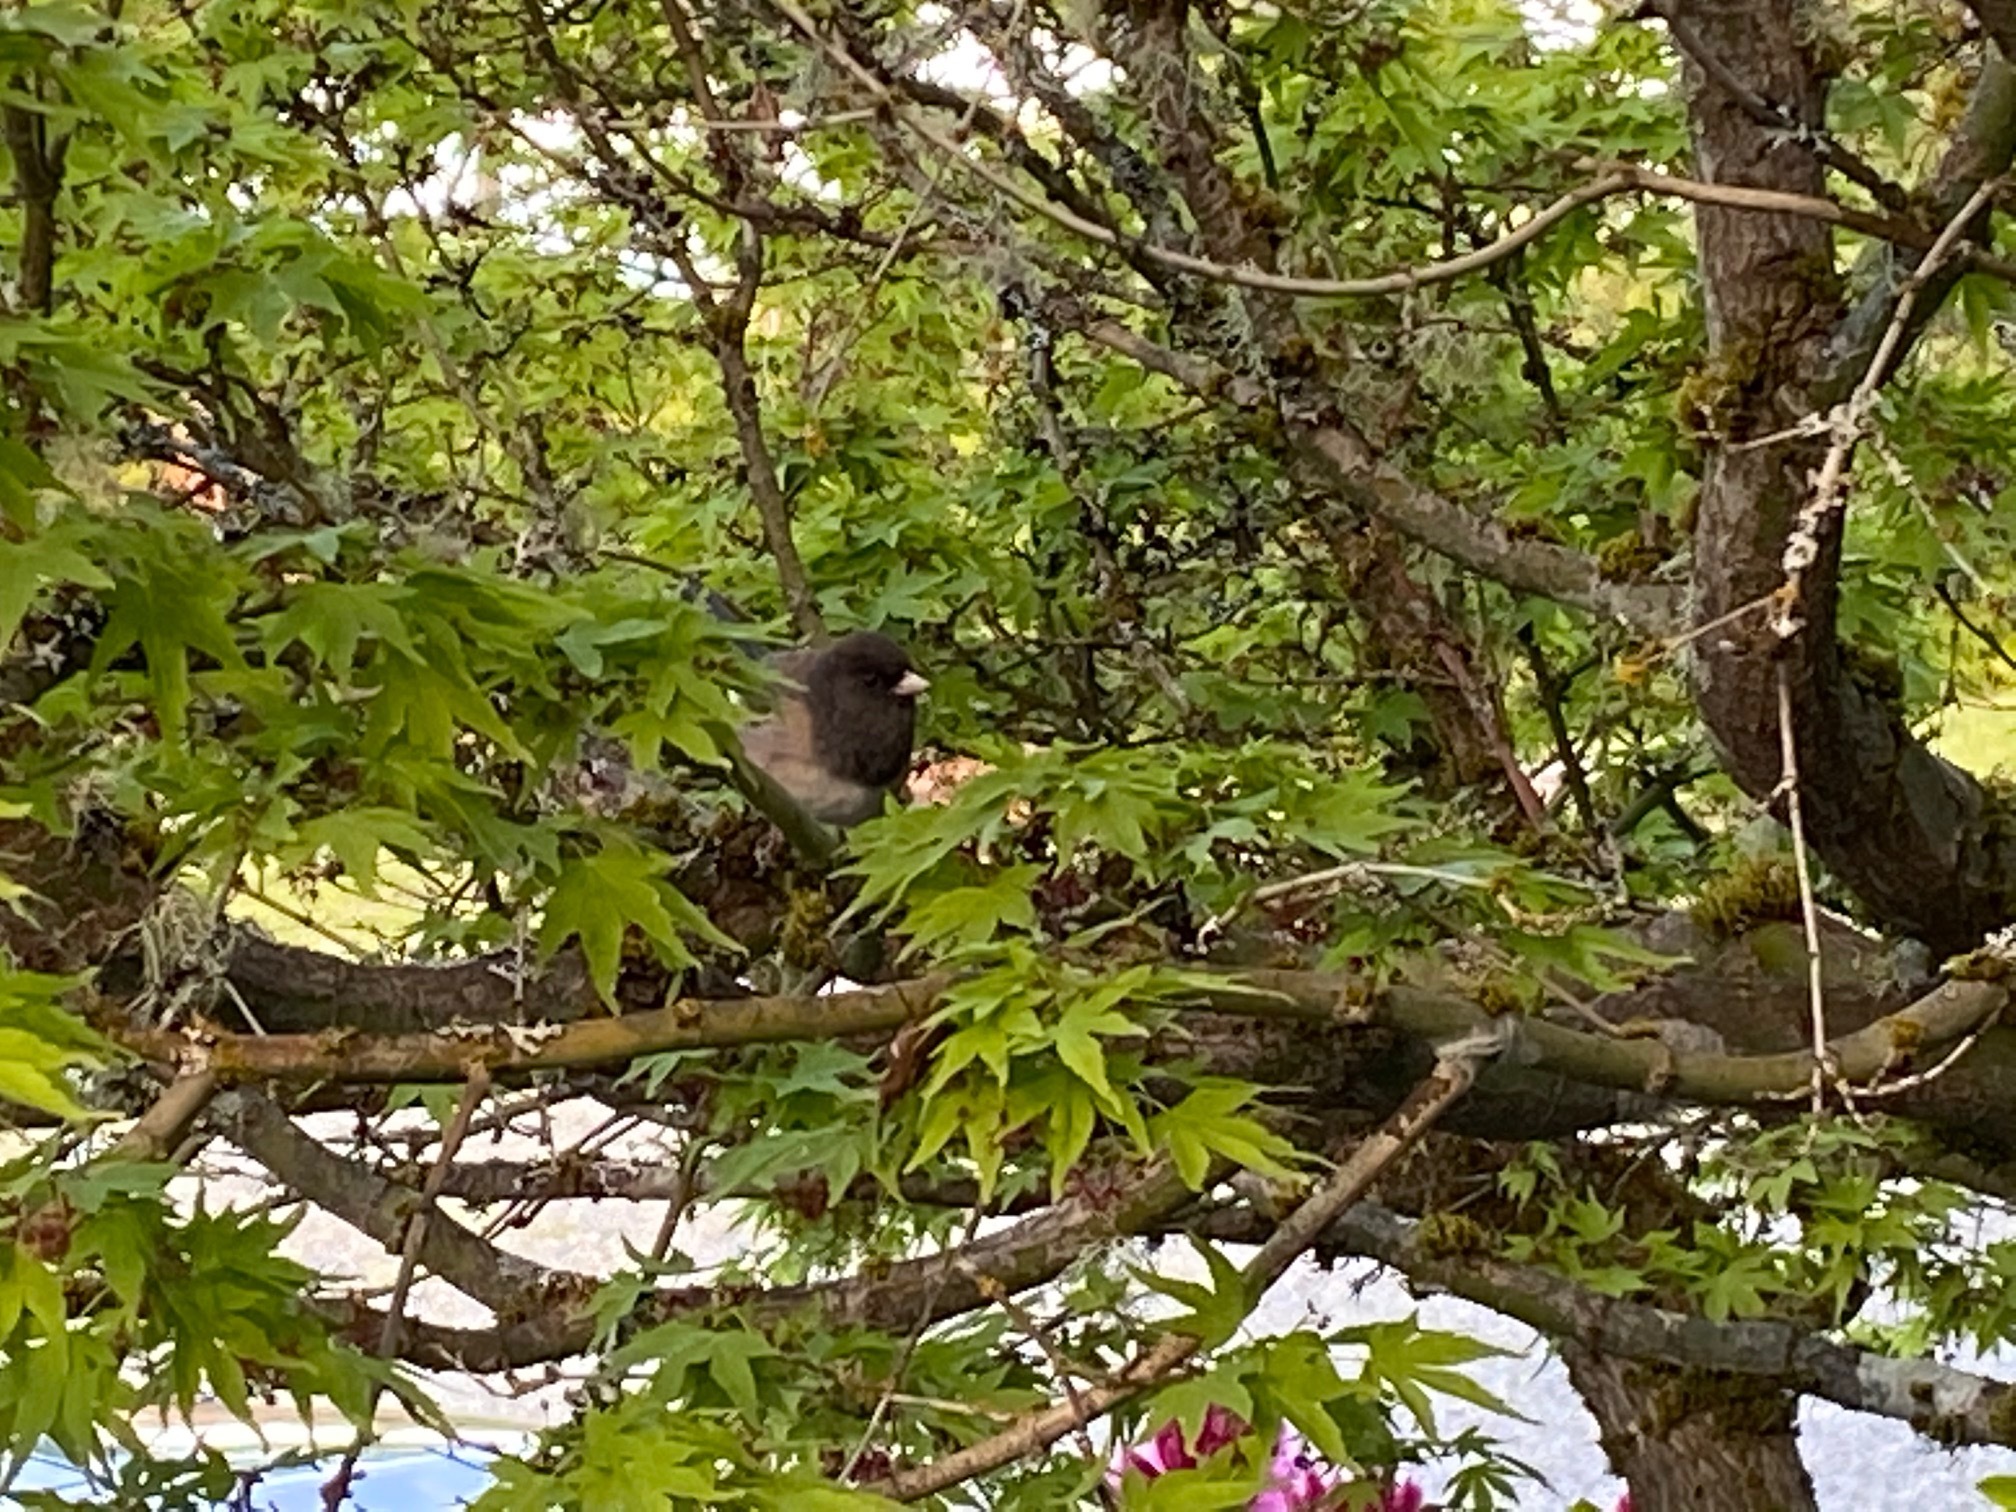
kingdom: Animalia
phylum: Chordata
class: Aves
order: Passeriformes
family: Passerellidae
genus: Junco
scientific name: Junco hyemalis
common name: Dark-eyed junco
